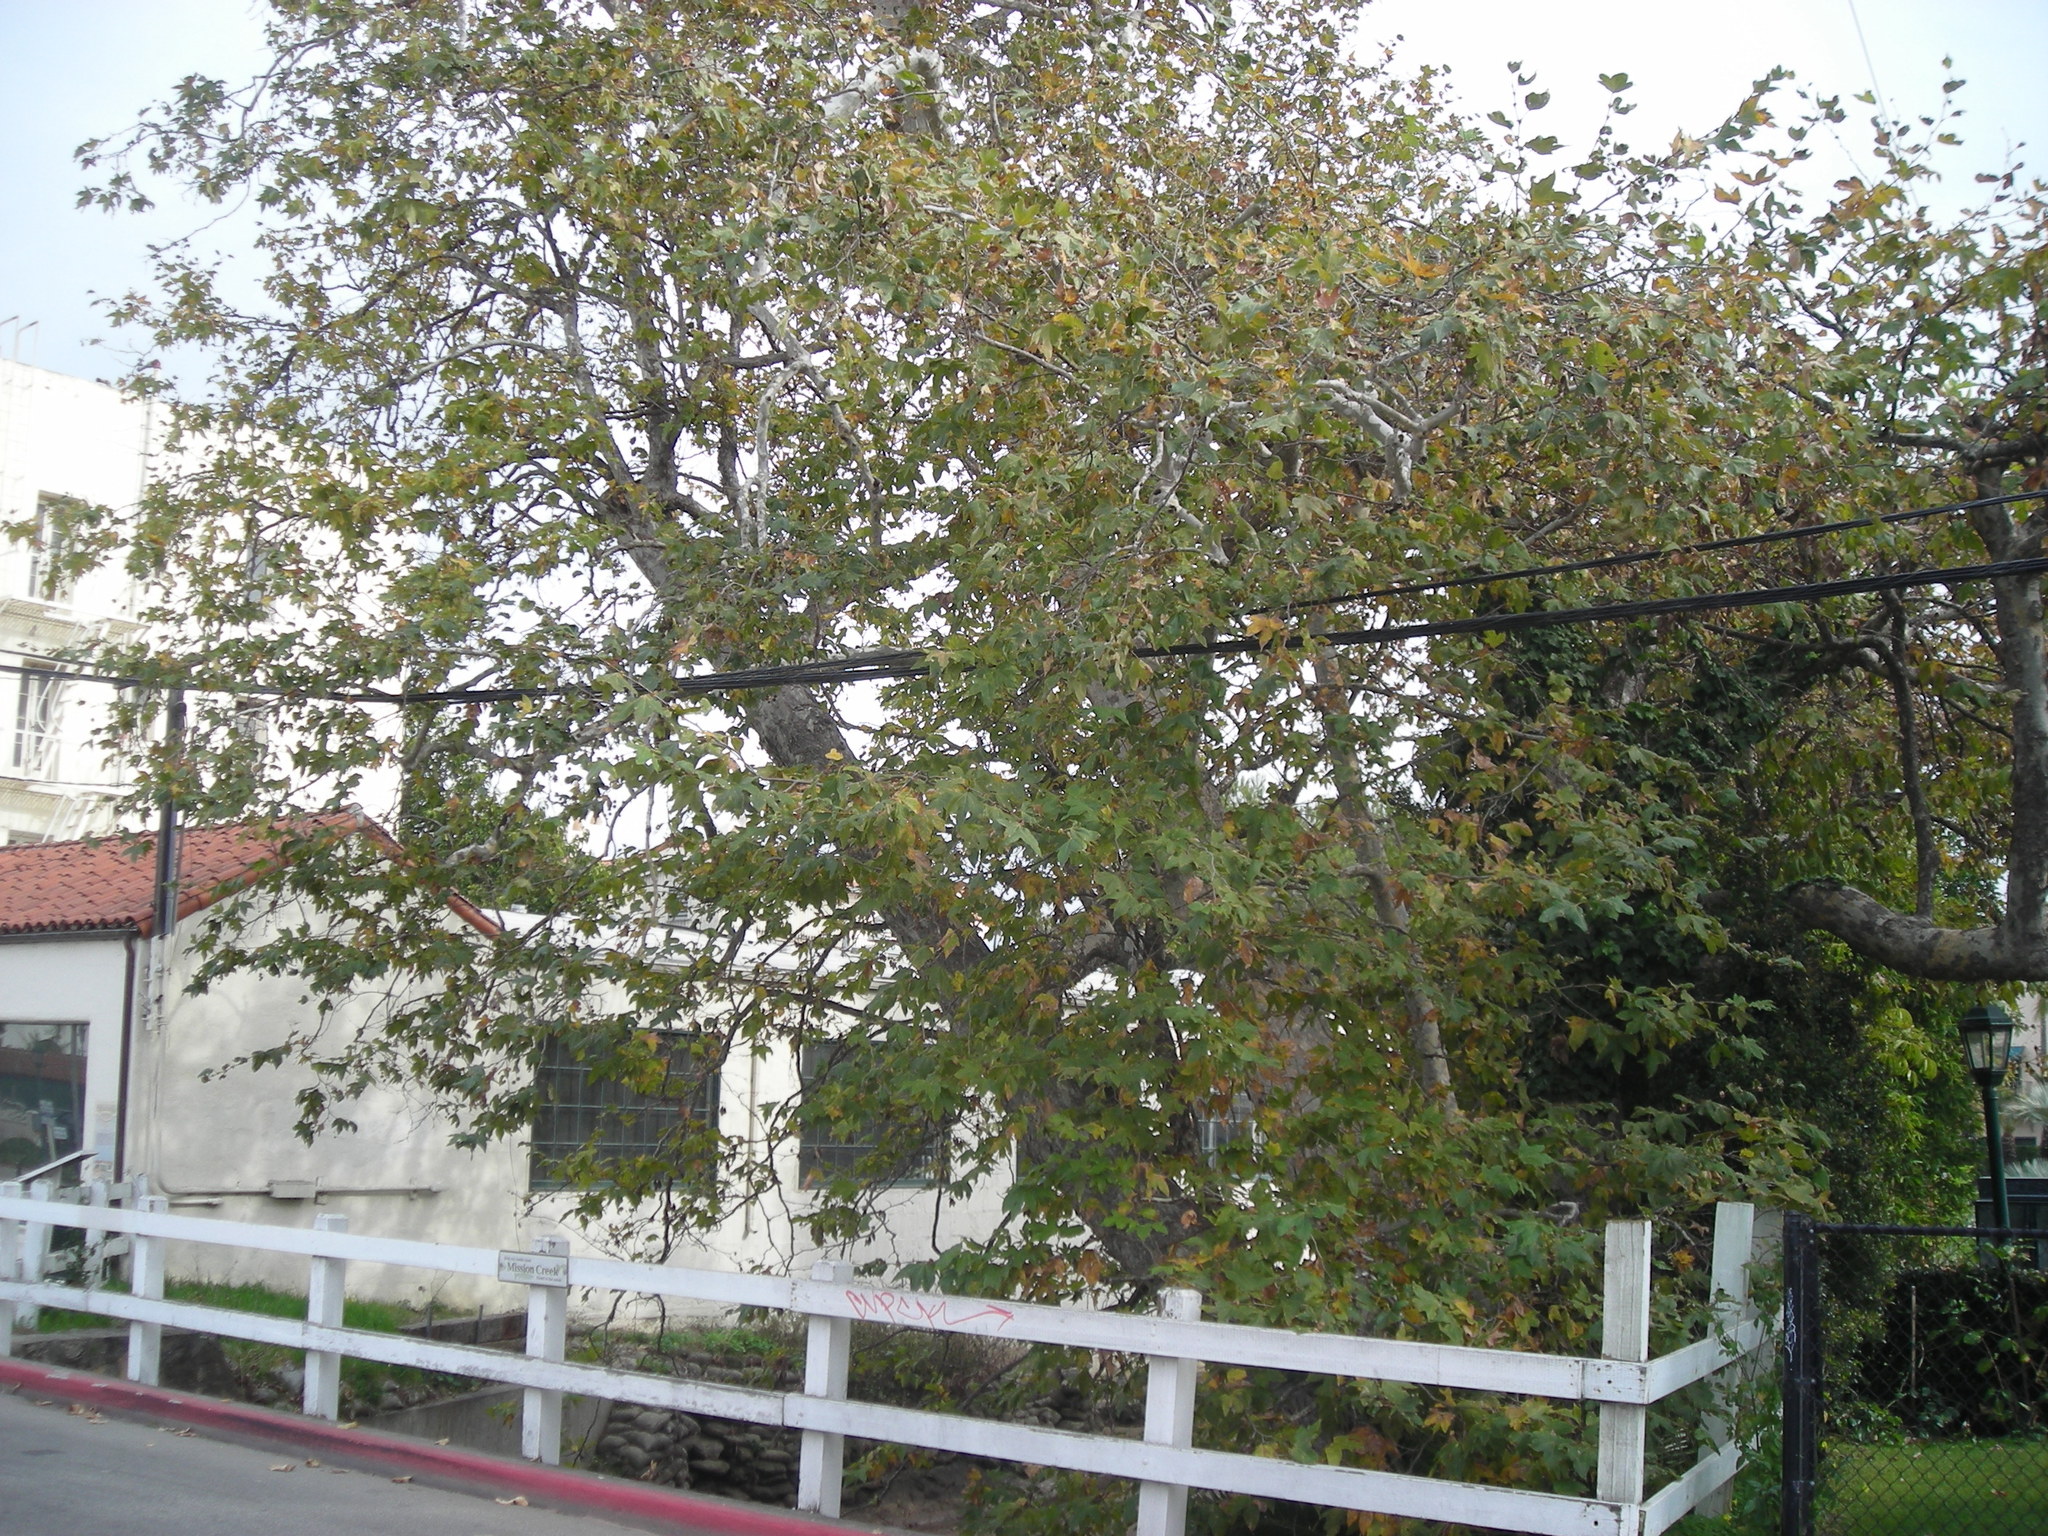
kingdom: Plantae
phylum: Tracheophyta
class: Magnoliopsida
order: Proteales
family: Platanaceae
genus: Platanus
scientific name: Platanus racemosa
